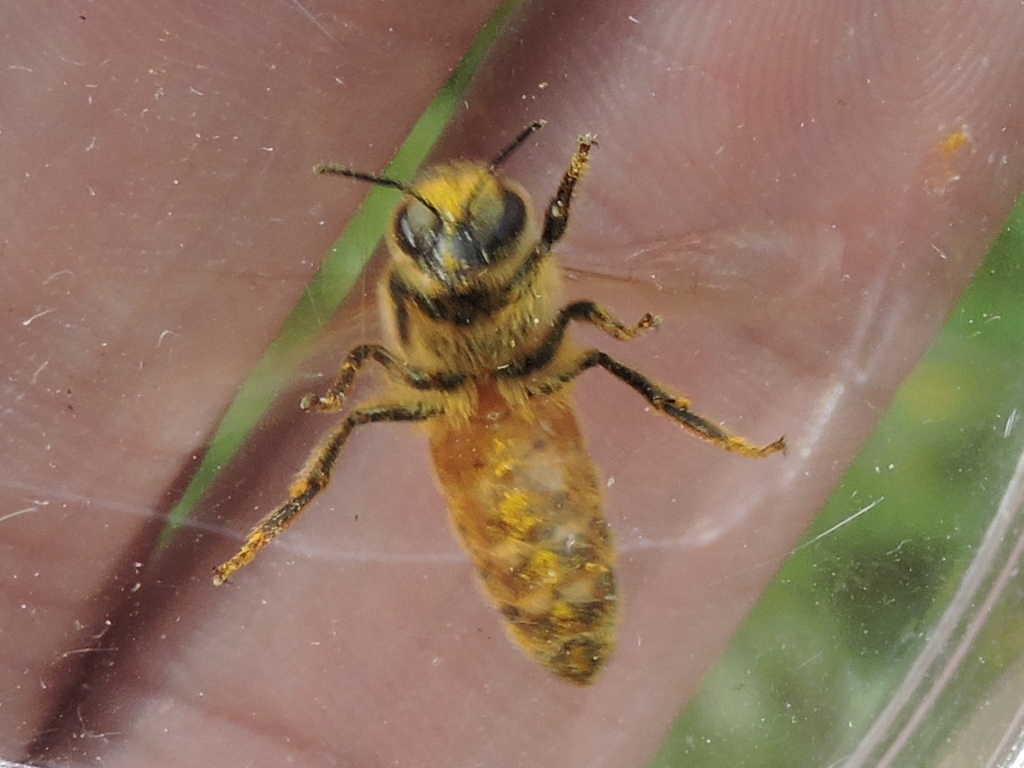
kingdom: Animalia
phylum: Arthropoda
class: Insecta
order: Hymenoptera
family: Apidae
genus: Apis
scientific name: Apis mellifera
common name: Honey bee
